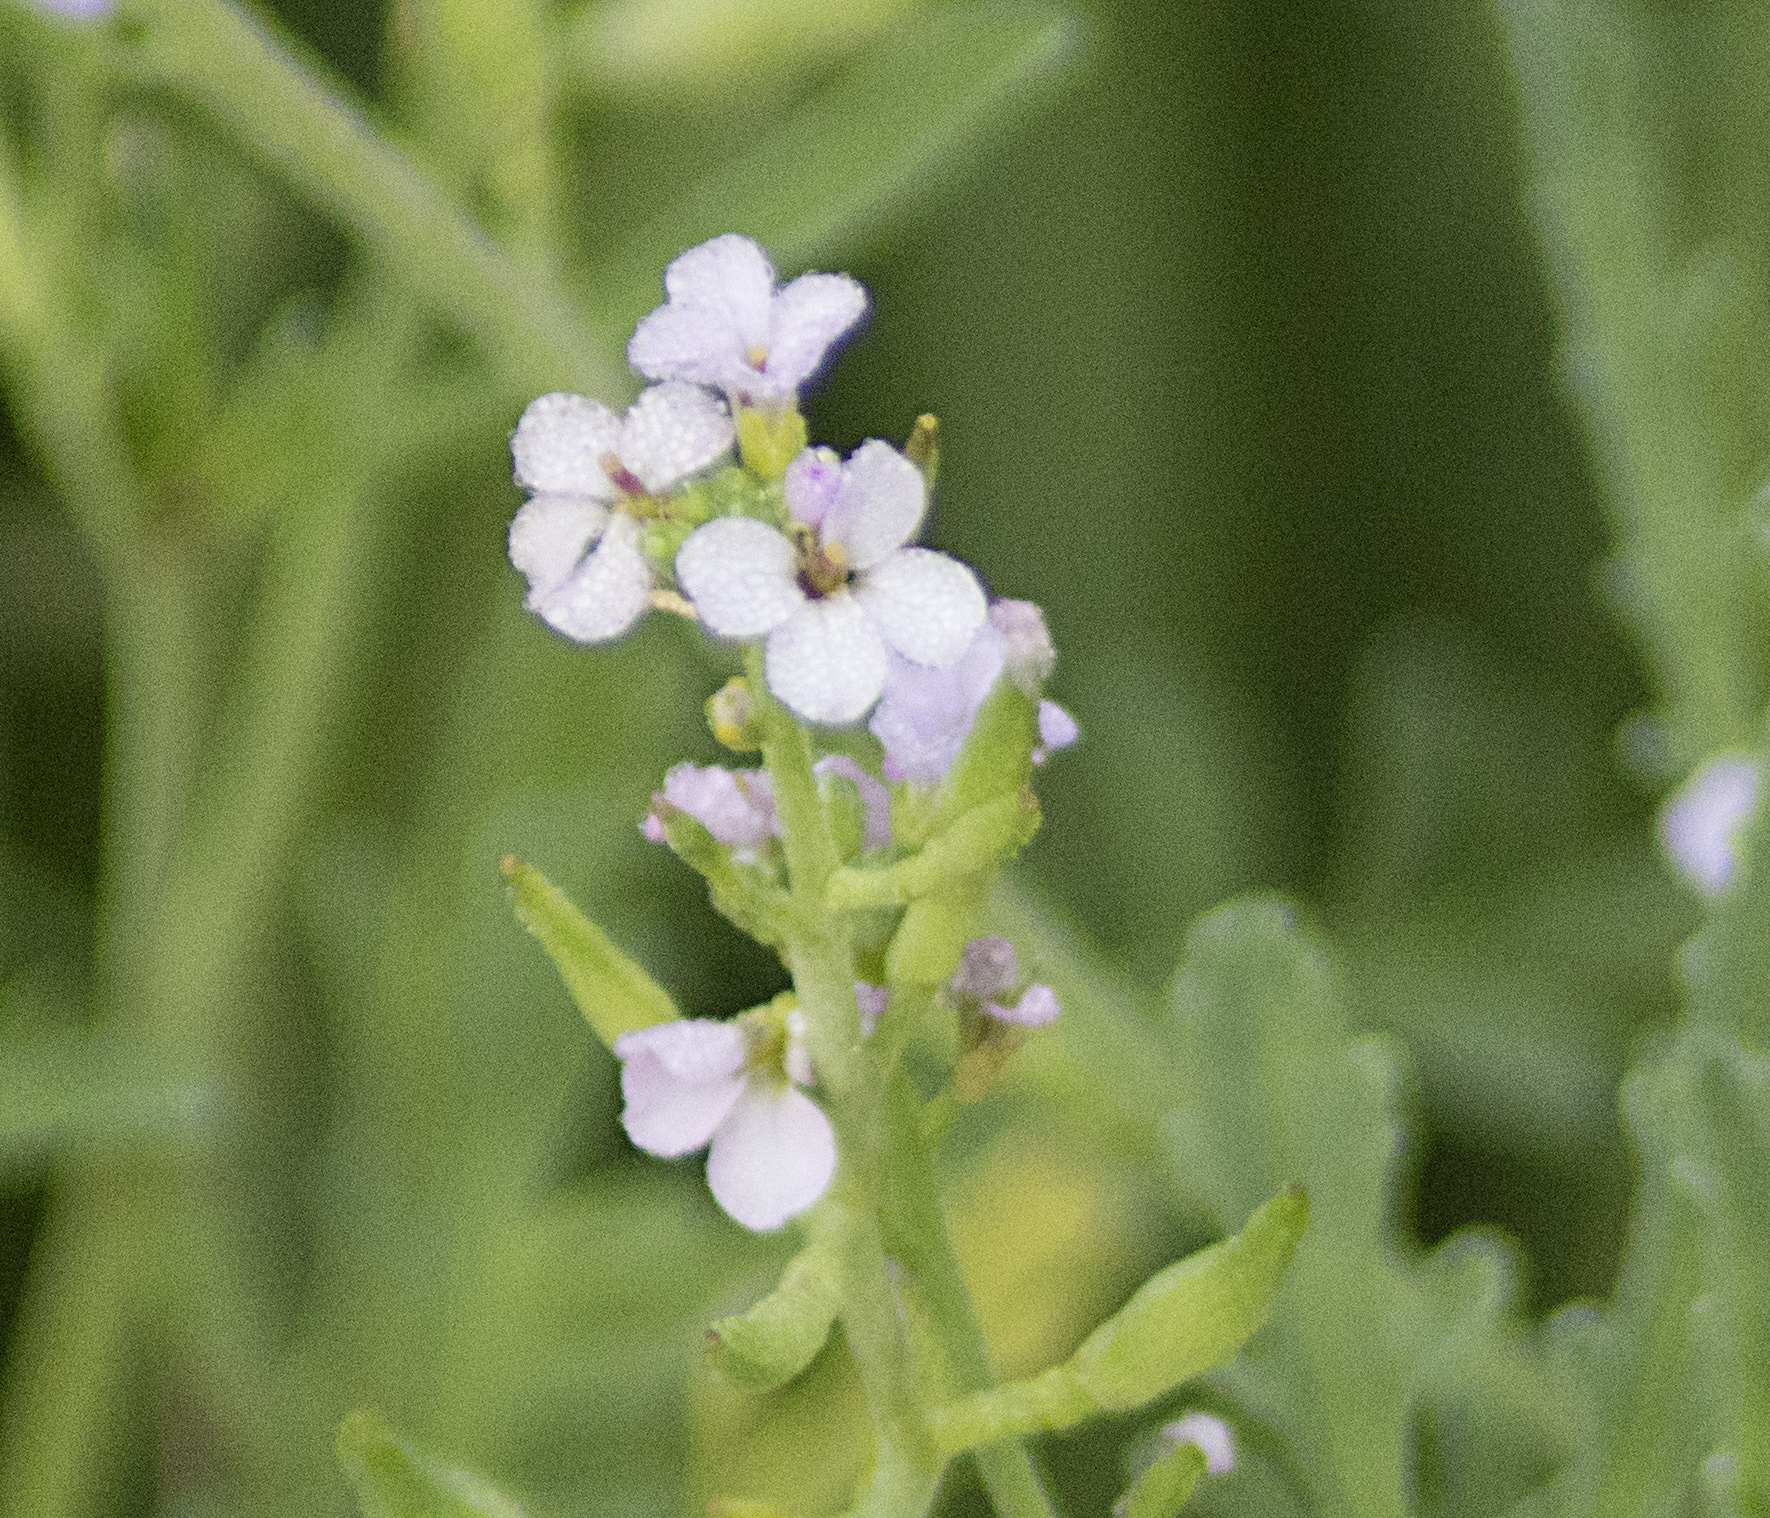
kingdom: Plantae
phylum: Tracheophyta
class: Magnoliopsida
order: Brassicales
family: Brassicaceae
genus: Cakile
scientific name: Cakile maritima
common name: Sea rocket
